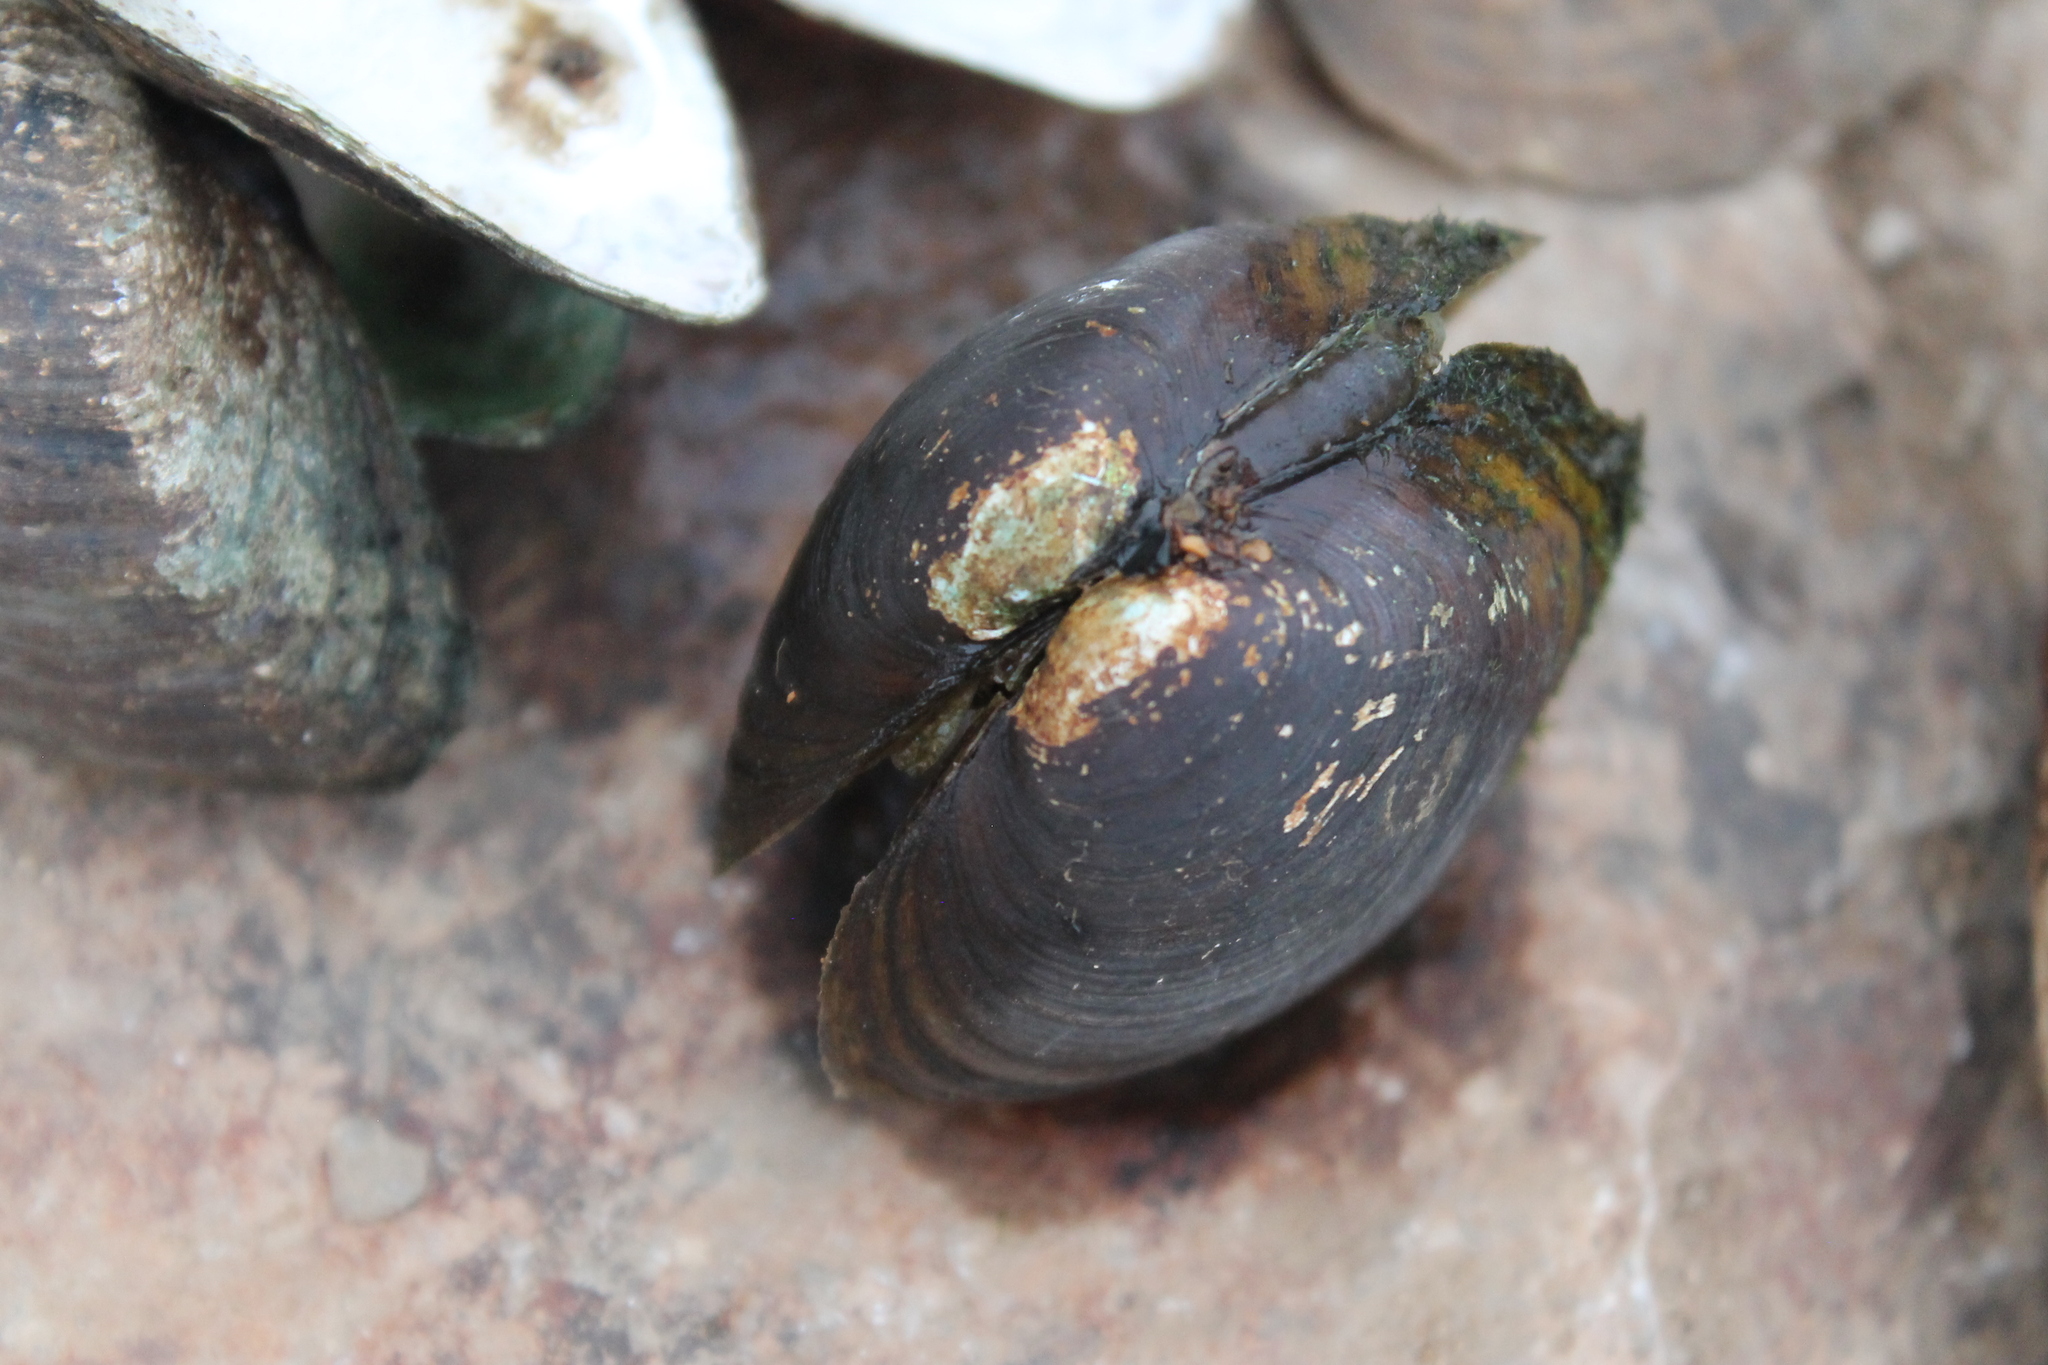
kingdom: Animalia
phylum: Mollusca
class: Bivalvia
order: Unionida
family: Unionidae
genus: Obovaria
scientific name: Obovaria subrotunda
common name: Round hickorynut
